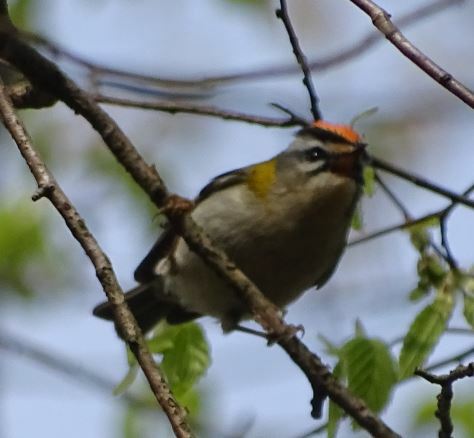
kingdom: Animalia
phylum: Chordata
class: Aves
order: Passeriformes
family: Regulidae
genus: Regulus
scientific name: Regulus ignicapilla
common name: Firecrest
